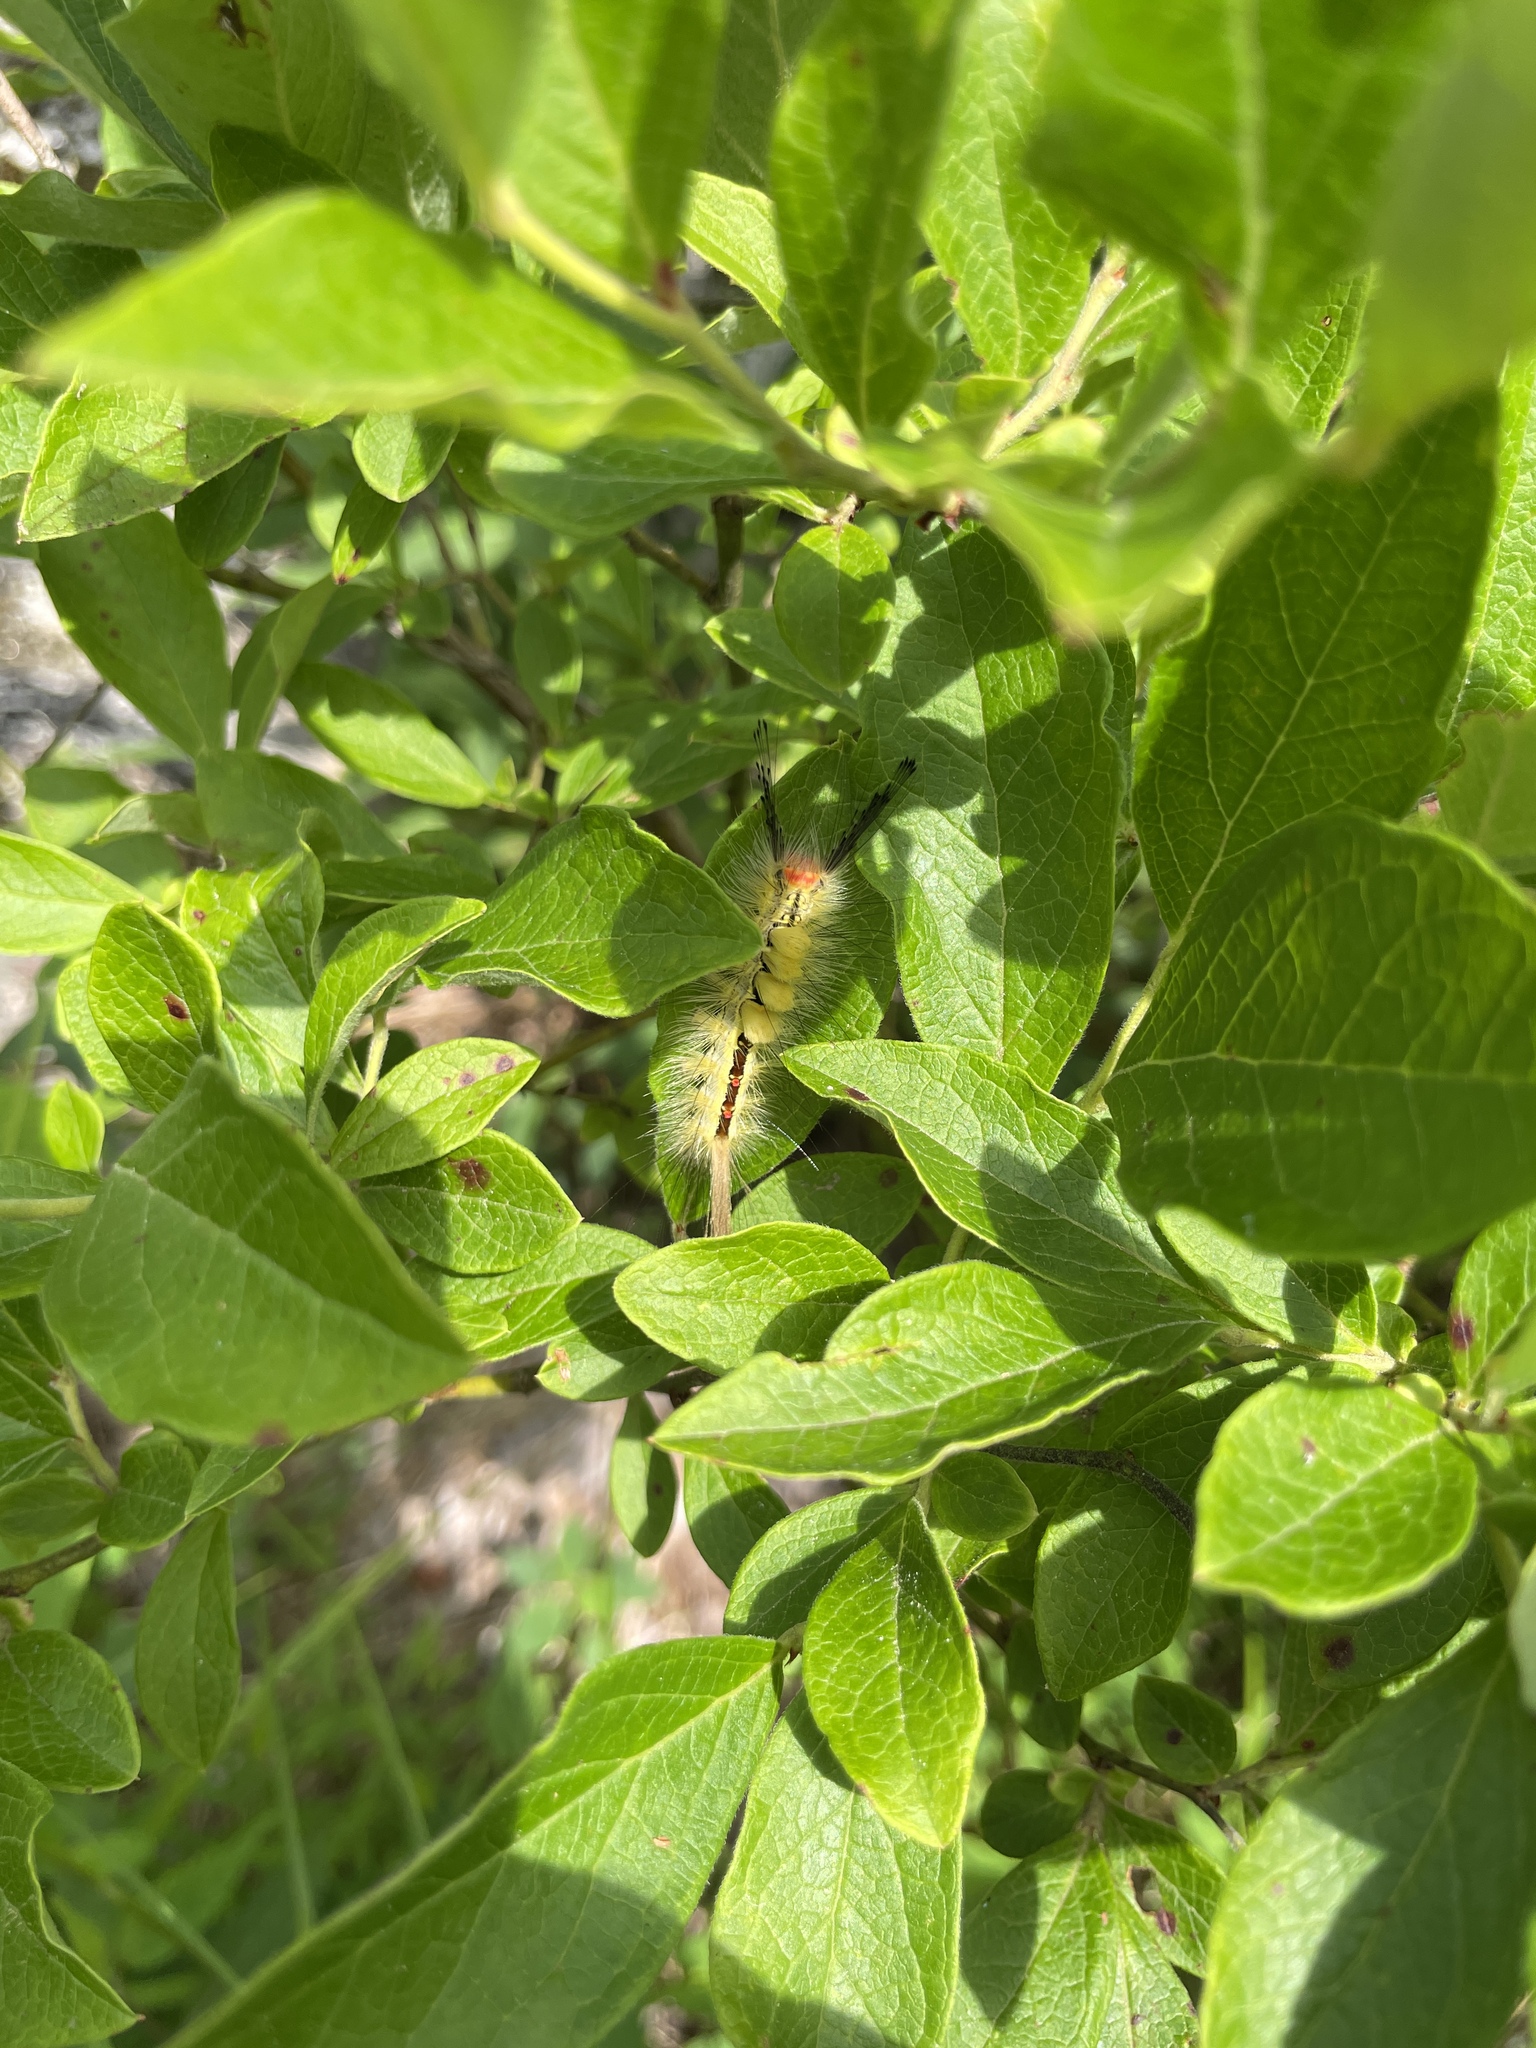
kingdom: Animalia
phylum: Arthropoda
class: Insecta
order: Lepidoptera
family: Erebidae
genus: Orgyia
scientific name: Orgyia leucostigma
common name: White-marked tussock moth
